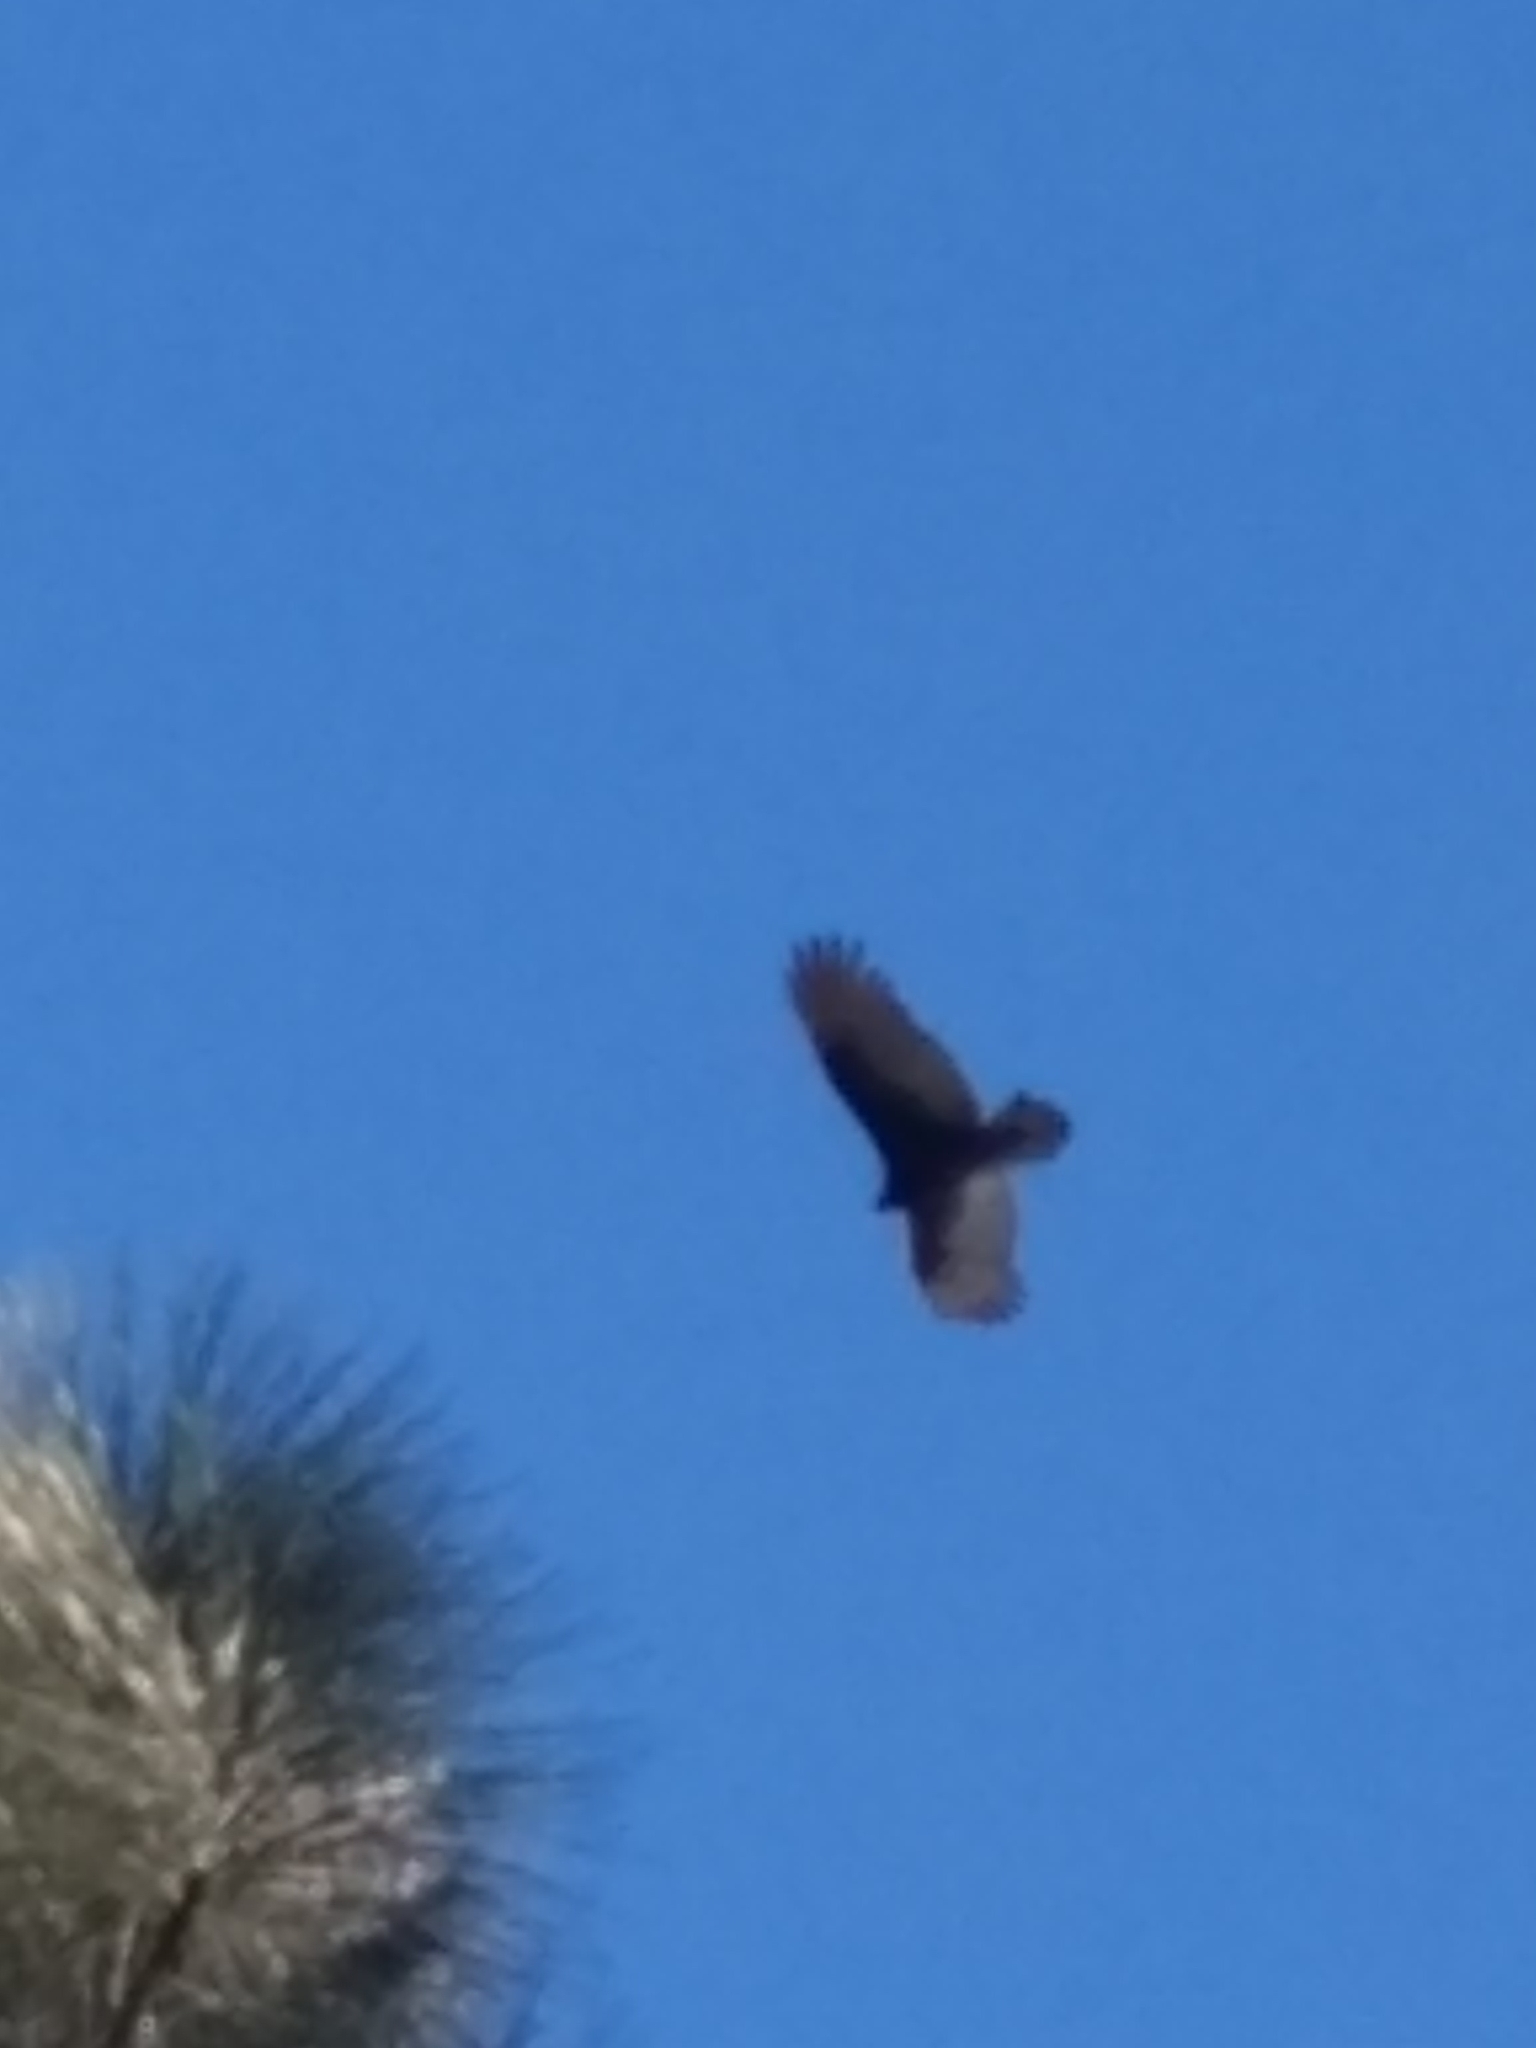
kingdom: Animalia
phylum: Chordata
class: Aves
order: Accipitriformes
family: Cathartidae
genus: Cathartes
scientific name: Cathartes aura
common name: Turkey vulture
